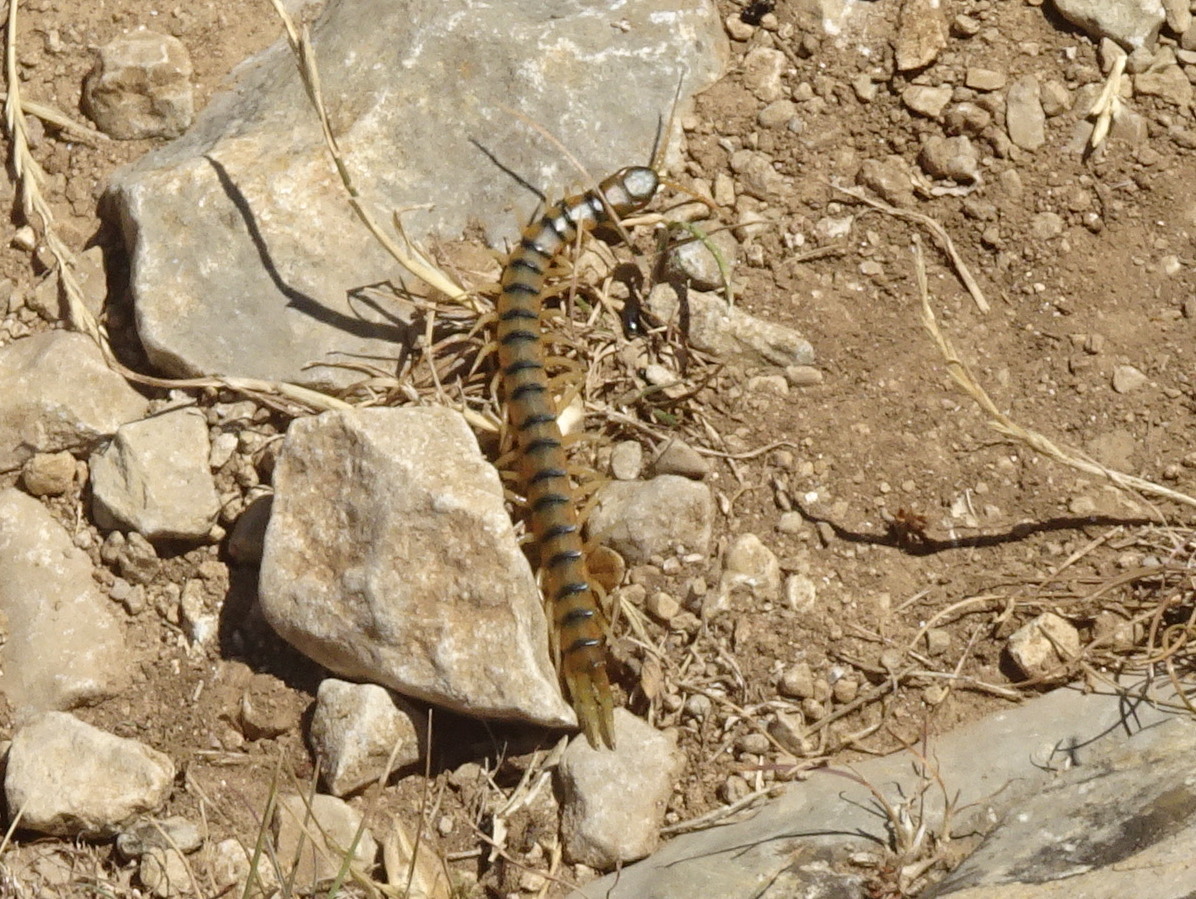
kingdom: Animalia
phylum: Arthropoda
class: Chilopoda
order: Scolopendromorpha
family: Scolopendridae
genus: Scolopendra
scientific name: Scolopendra cingulata
